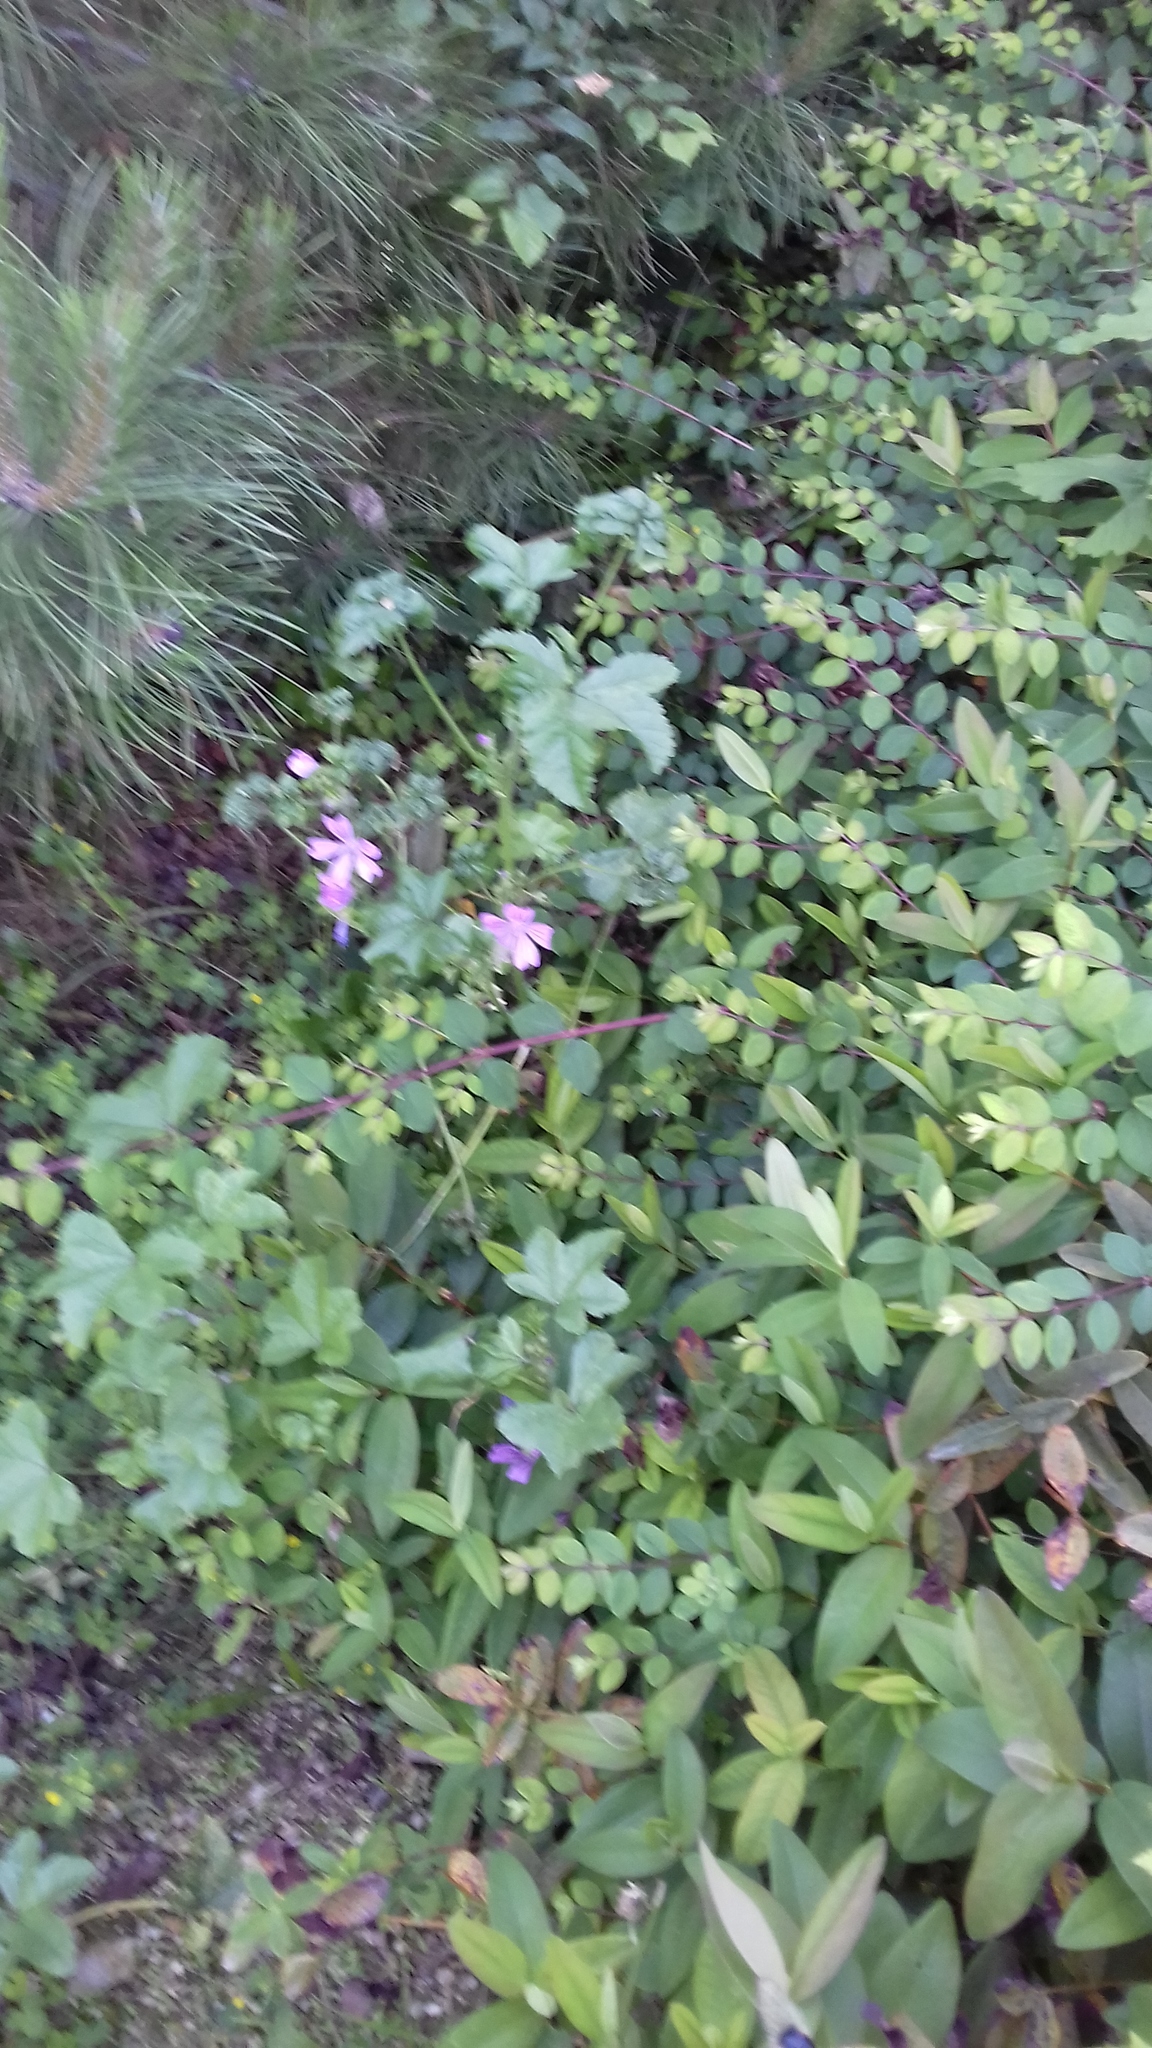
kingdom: Plantae
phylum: Tracheophyta
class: Magnoliopsida
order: Malvales
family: Malvaceae
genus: Malva
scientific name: Malva sylvestris
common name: Common mallow
